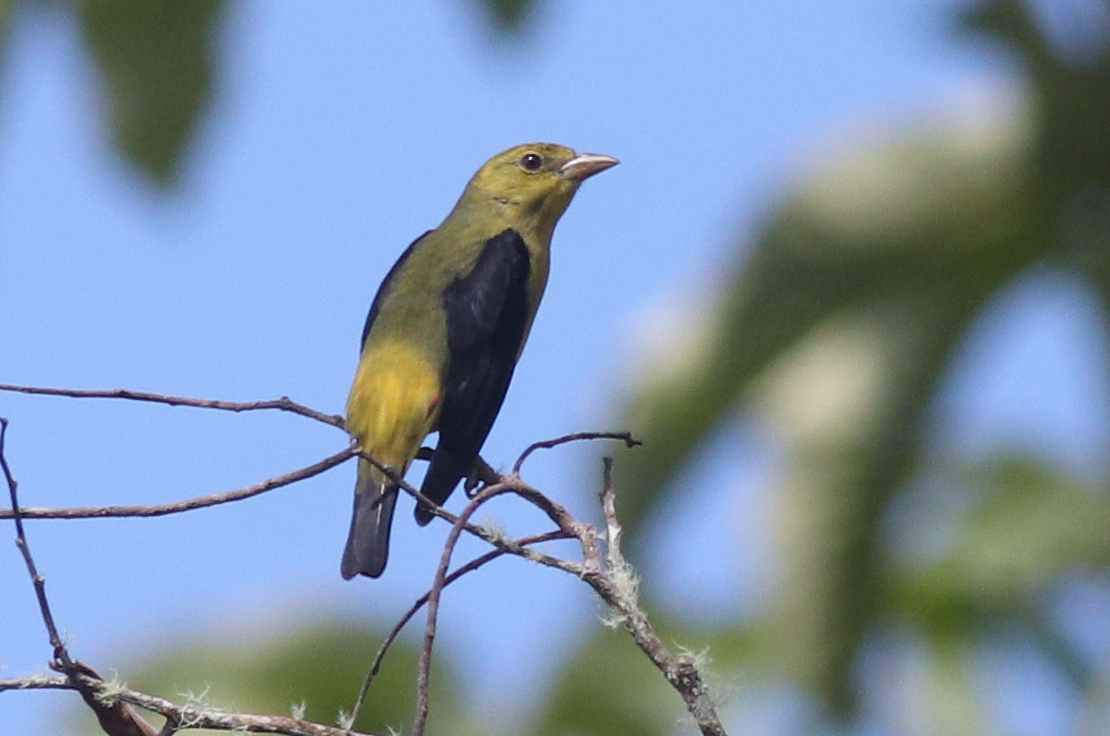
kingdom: Animalia
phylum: Chordata
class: Aves
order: Passeriformes
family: Cardinalidae
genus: Piranga
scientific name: Piranga olivacea
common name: Scarlet tanager
